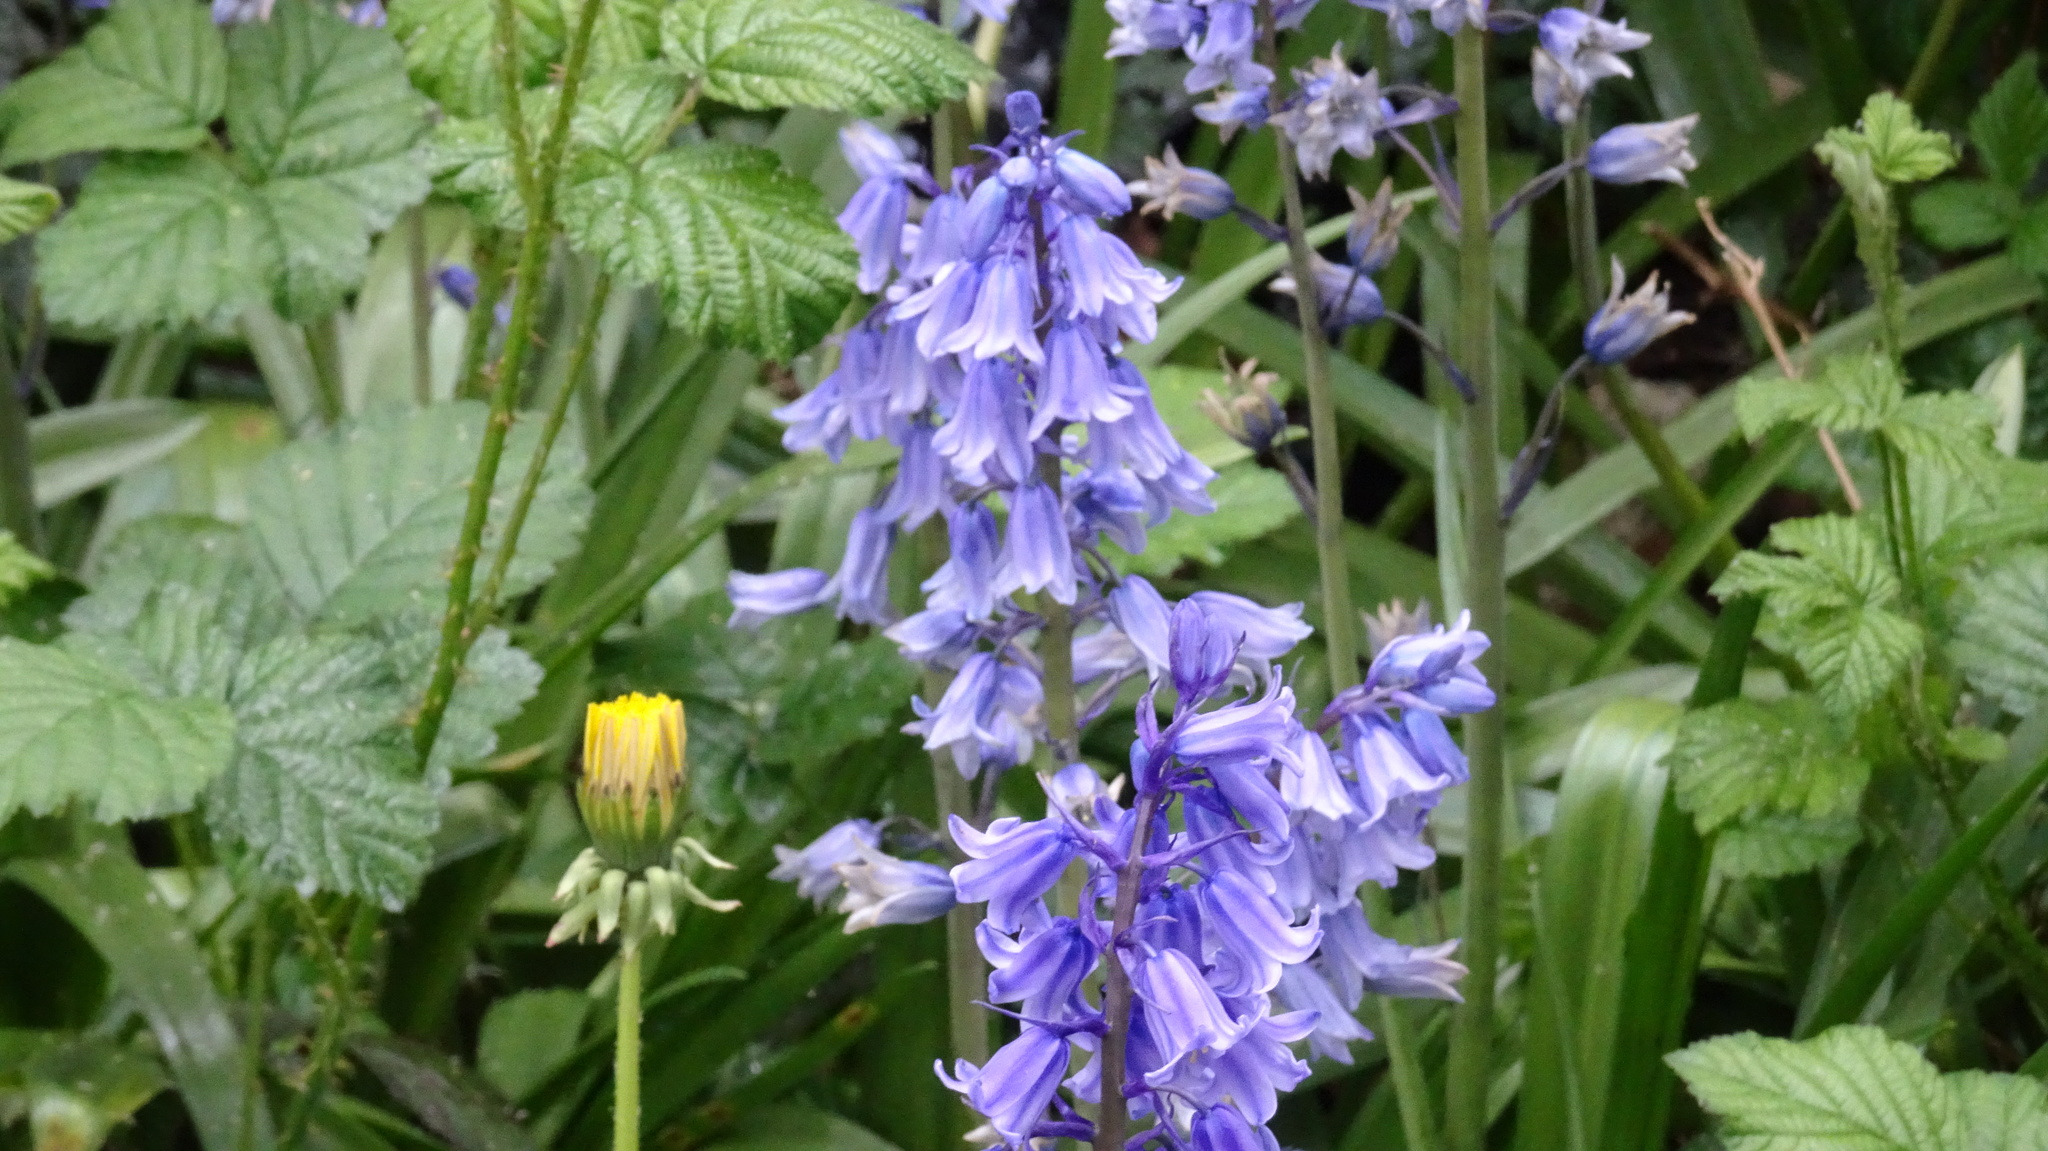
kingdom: Plantae
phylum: Tracheophyta
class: Liliopsida
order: Asparagales
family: Asparagaceae
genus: Hyacinthoides
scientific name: Hyacinthoides massartiana
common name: Hyacinthoides
